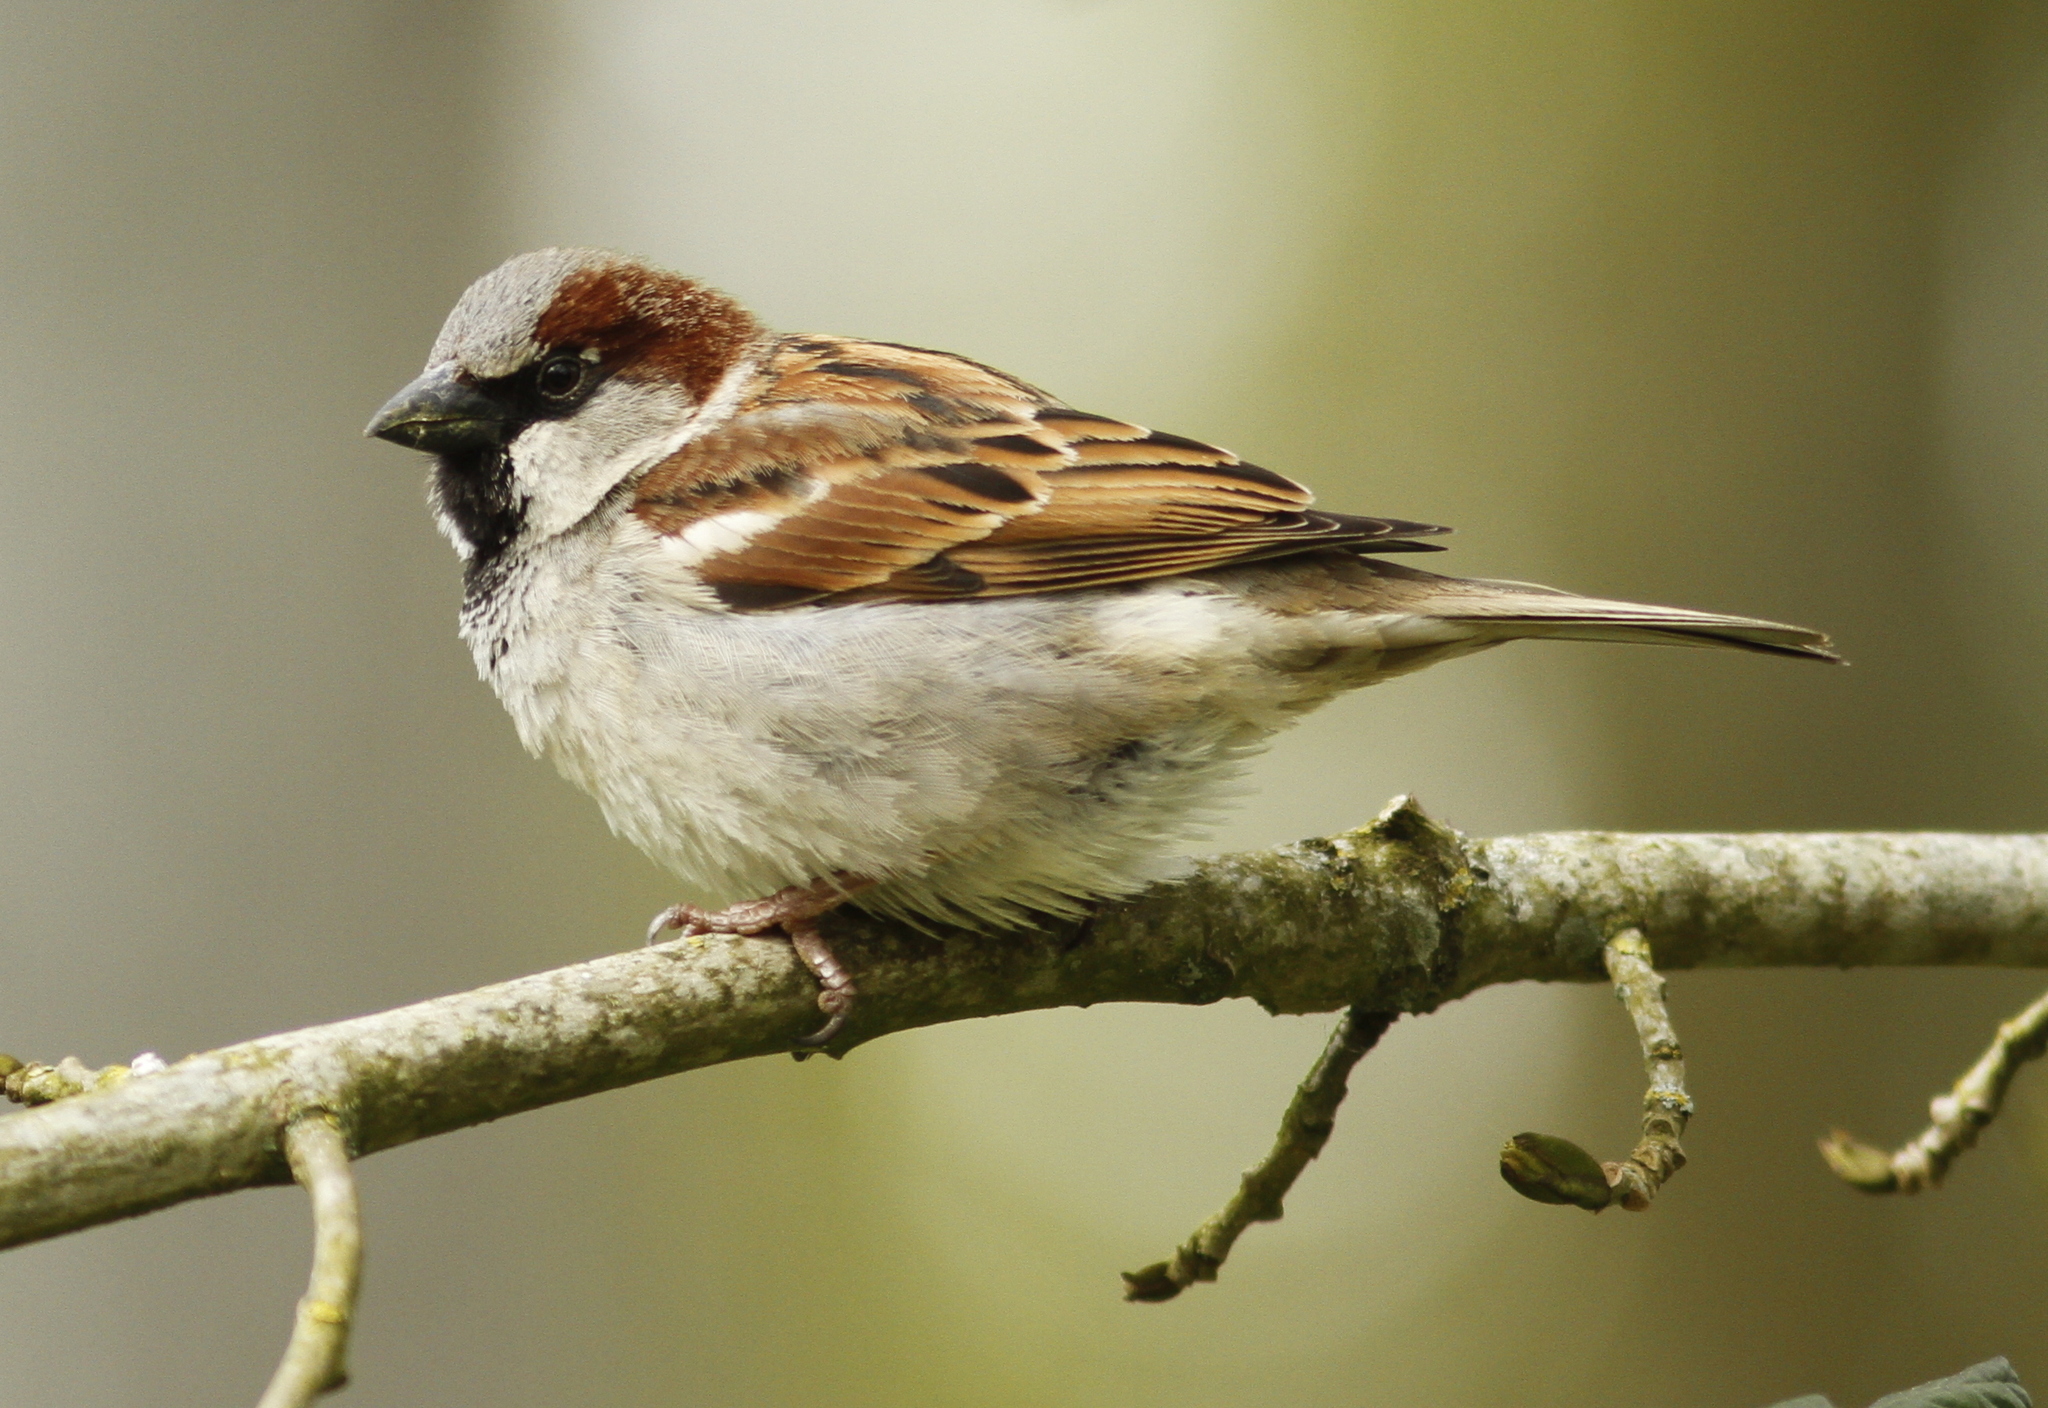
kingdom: Animalia
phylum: Chordata
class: Aves
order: Passeriformes
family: Passeridae
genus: Passer
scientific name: Passer domesticus
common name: House sparrow
